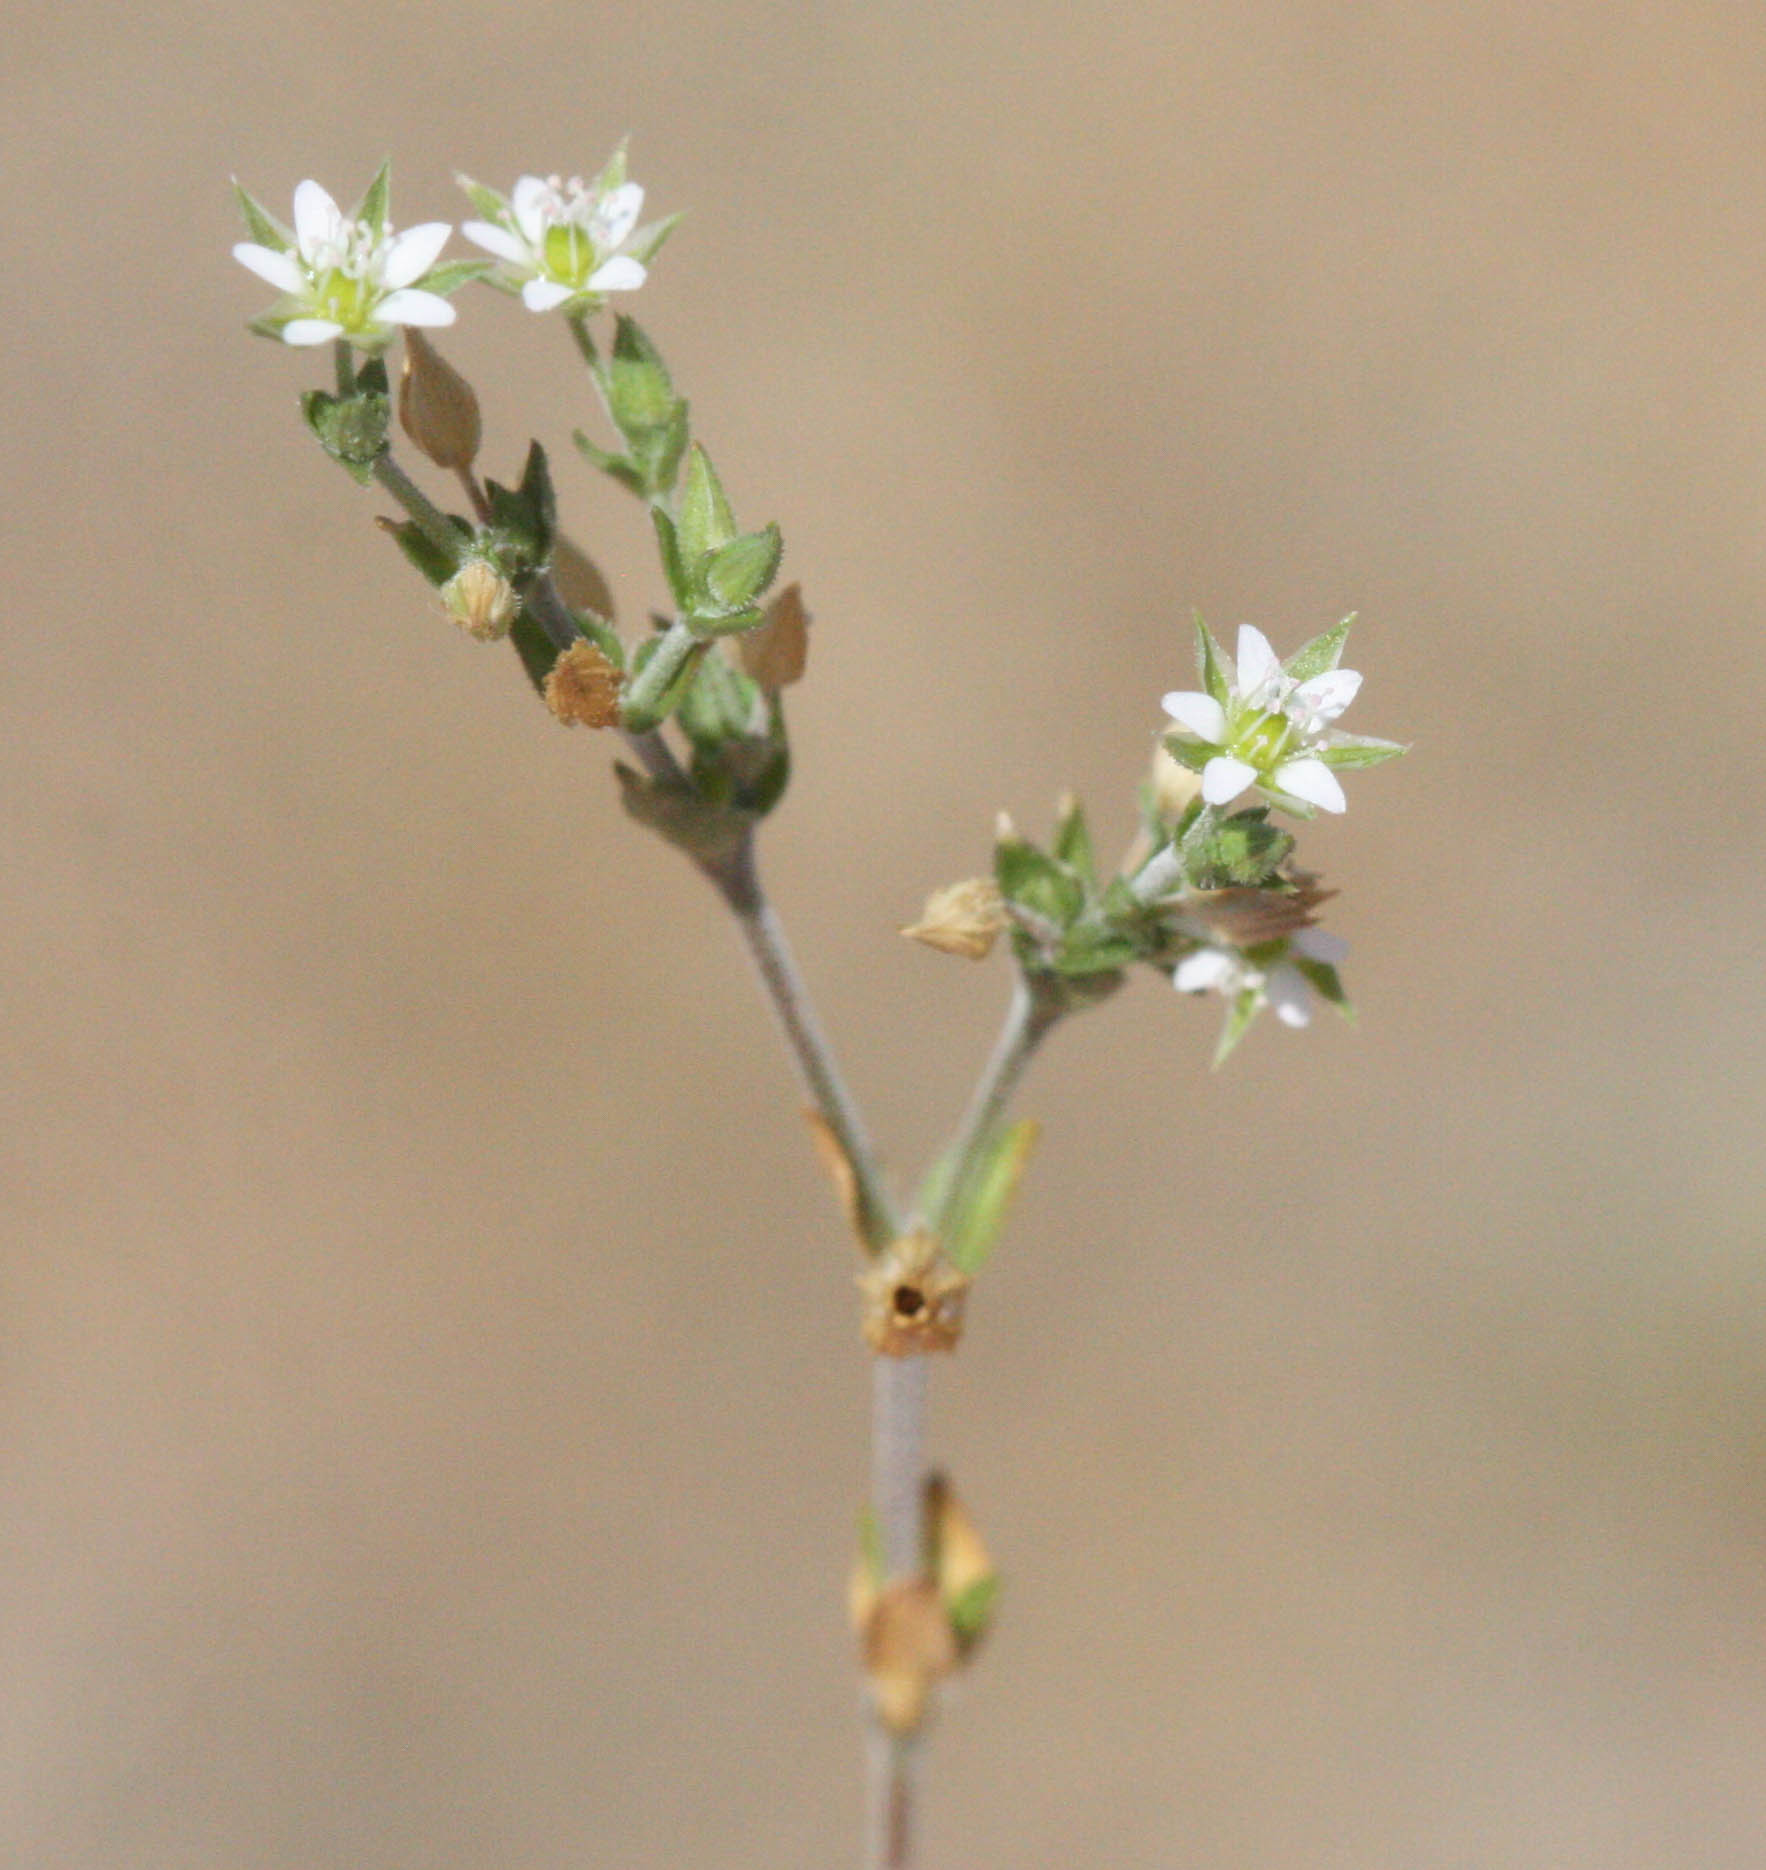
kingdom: Plantae
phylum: Tracheophyta
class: Magnoliopsida
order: Caryophyllales
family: Caryophyllaceae
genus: Arenaria
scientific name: Arenaria serpyllifolia
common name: Thyme-leaved sandwort
